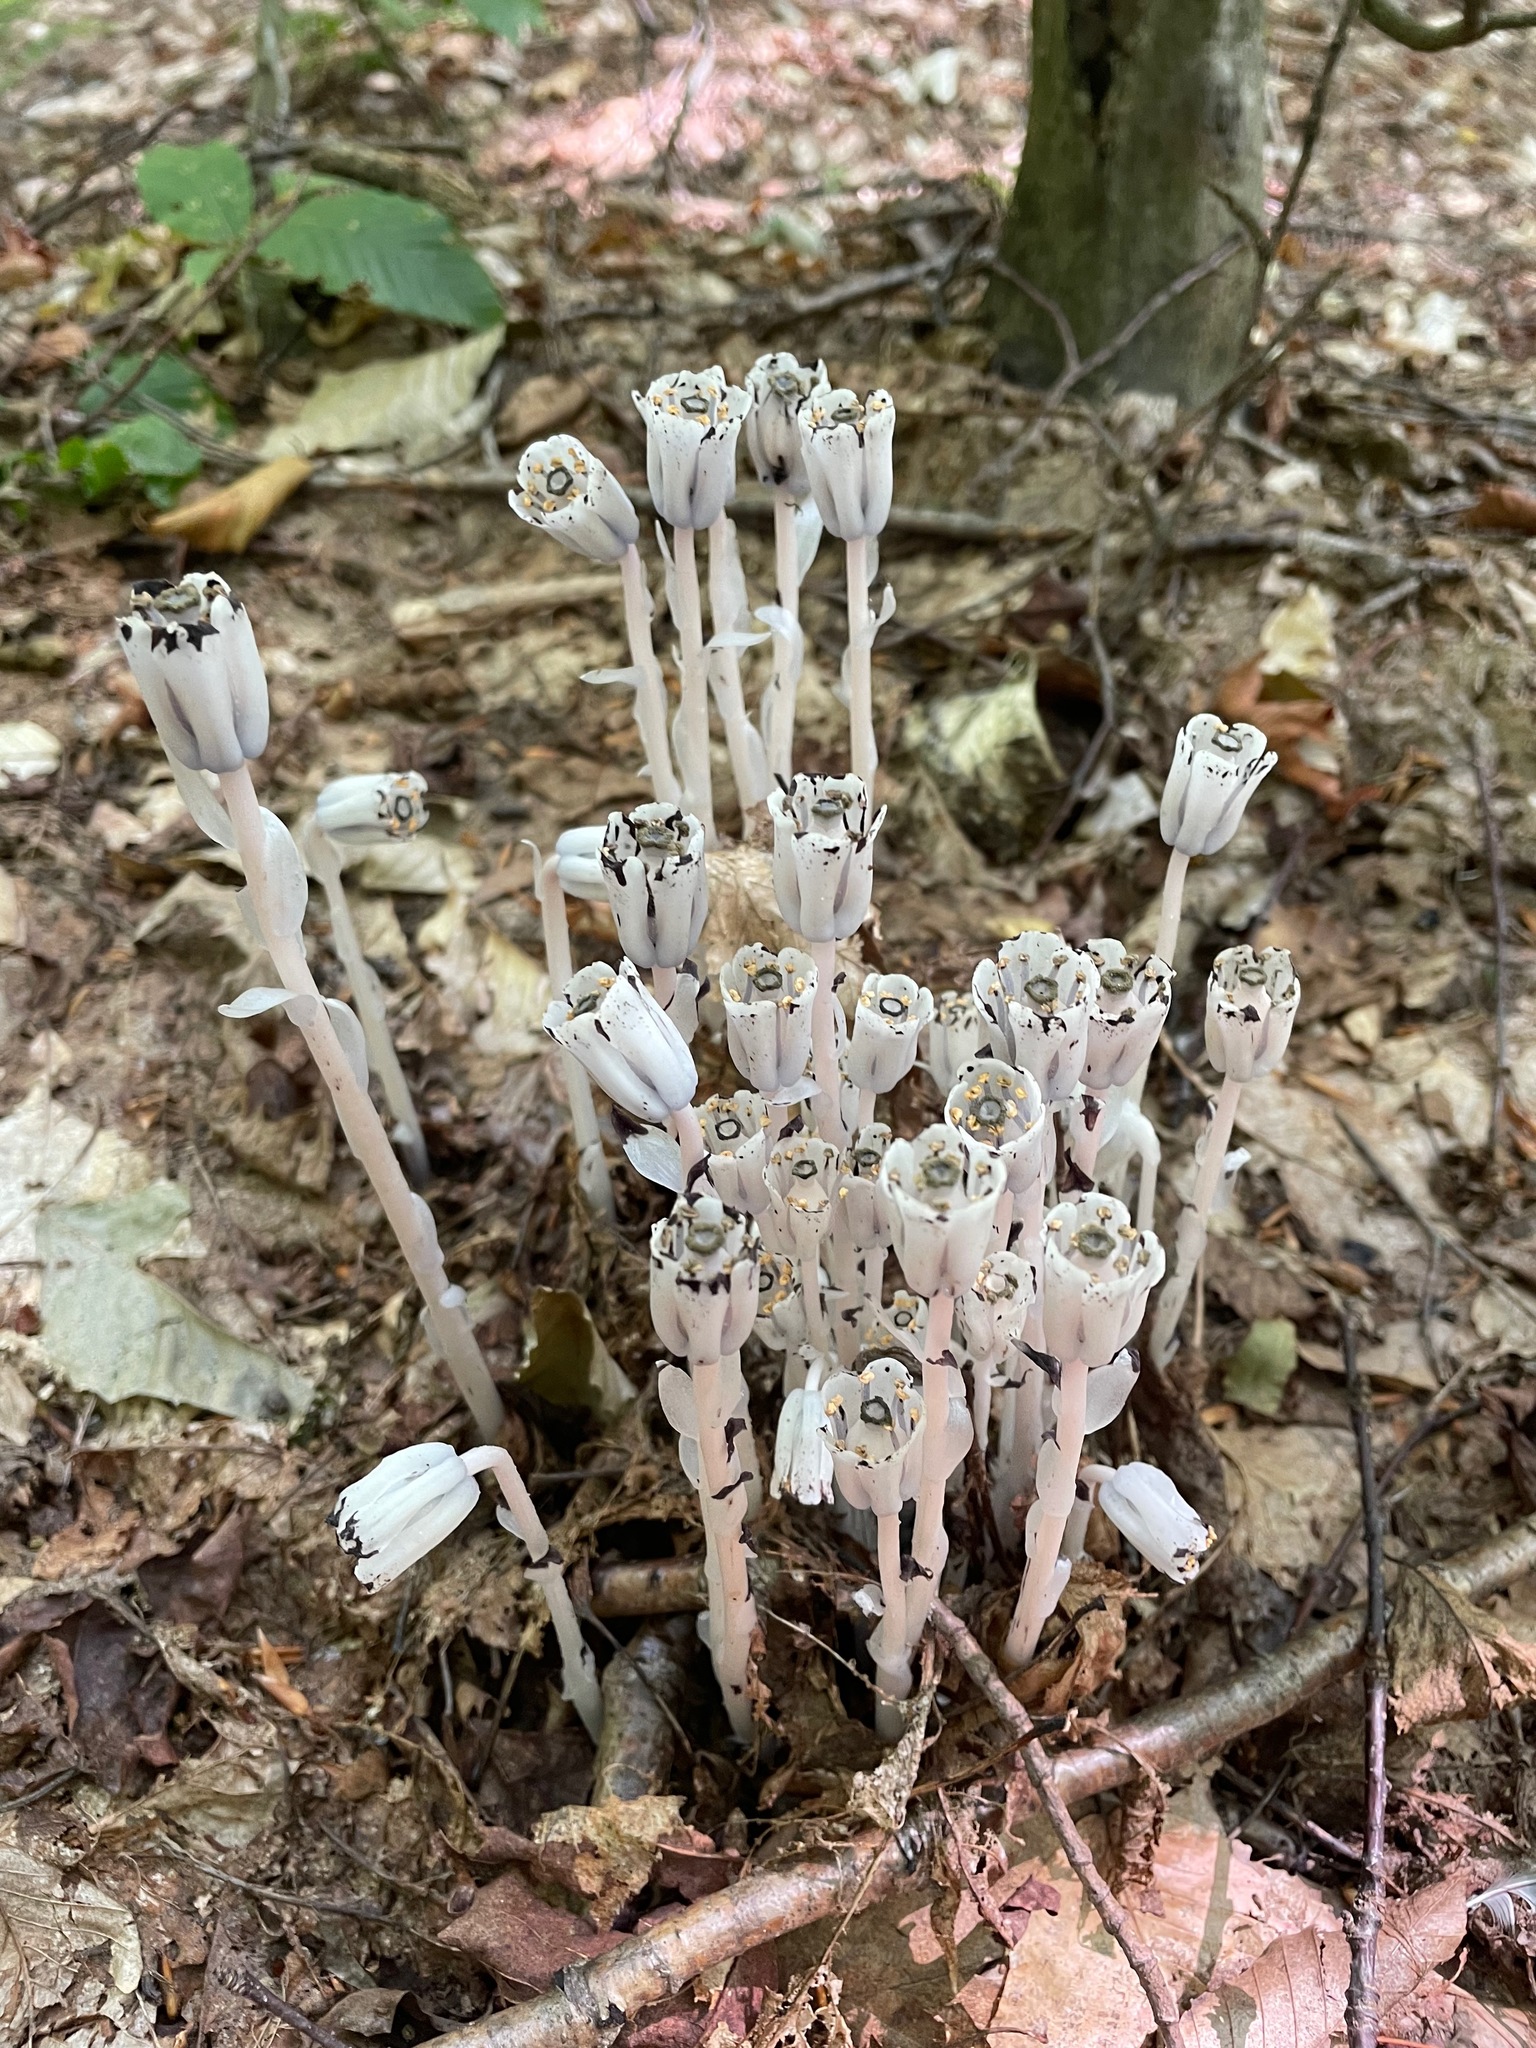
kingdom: Plantae
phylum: Tracheophyta
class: Magnoliopsida
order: Ericales
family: Ericaceae
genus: Monotropa
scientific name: Monotropa uniflora
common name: Convulsion root
